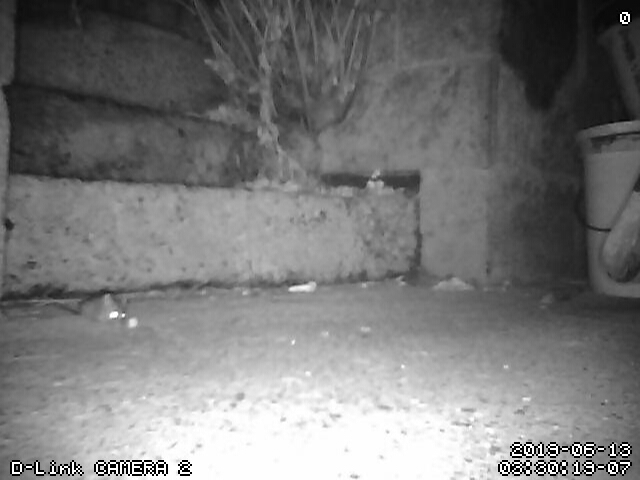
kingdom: Animalia
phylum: Chordata
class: Mammalia
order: Rodentia
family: Muridae
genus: Mus
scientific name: Mus musculus
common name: House mouse
